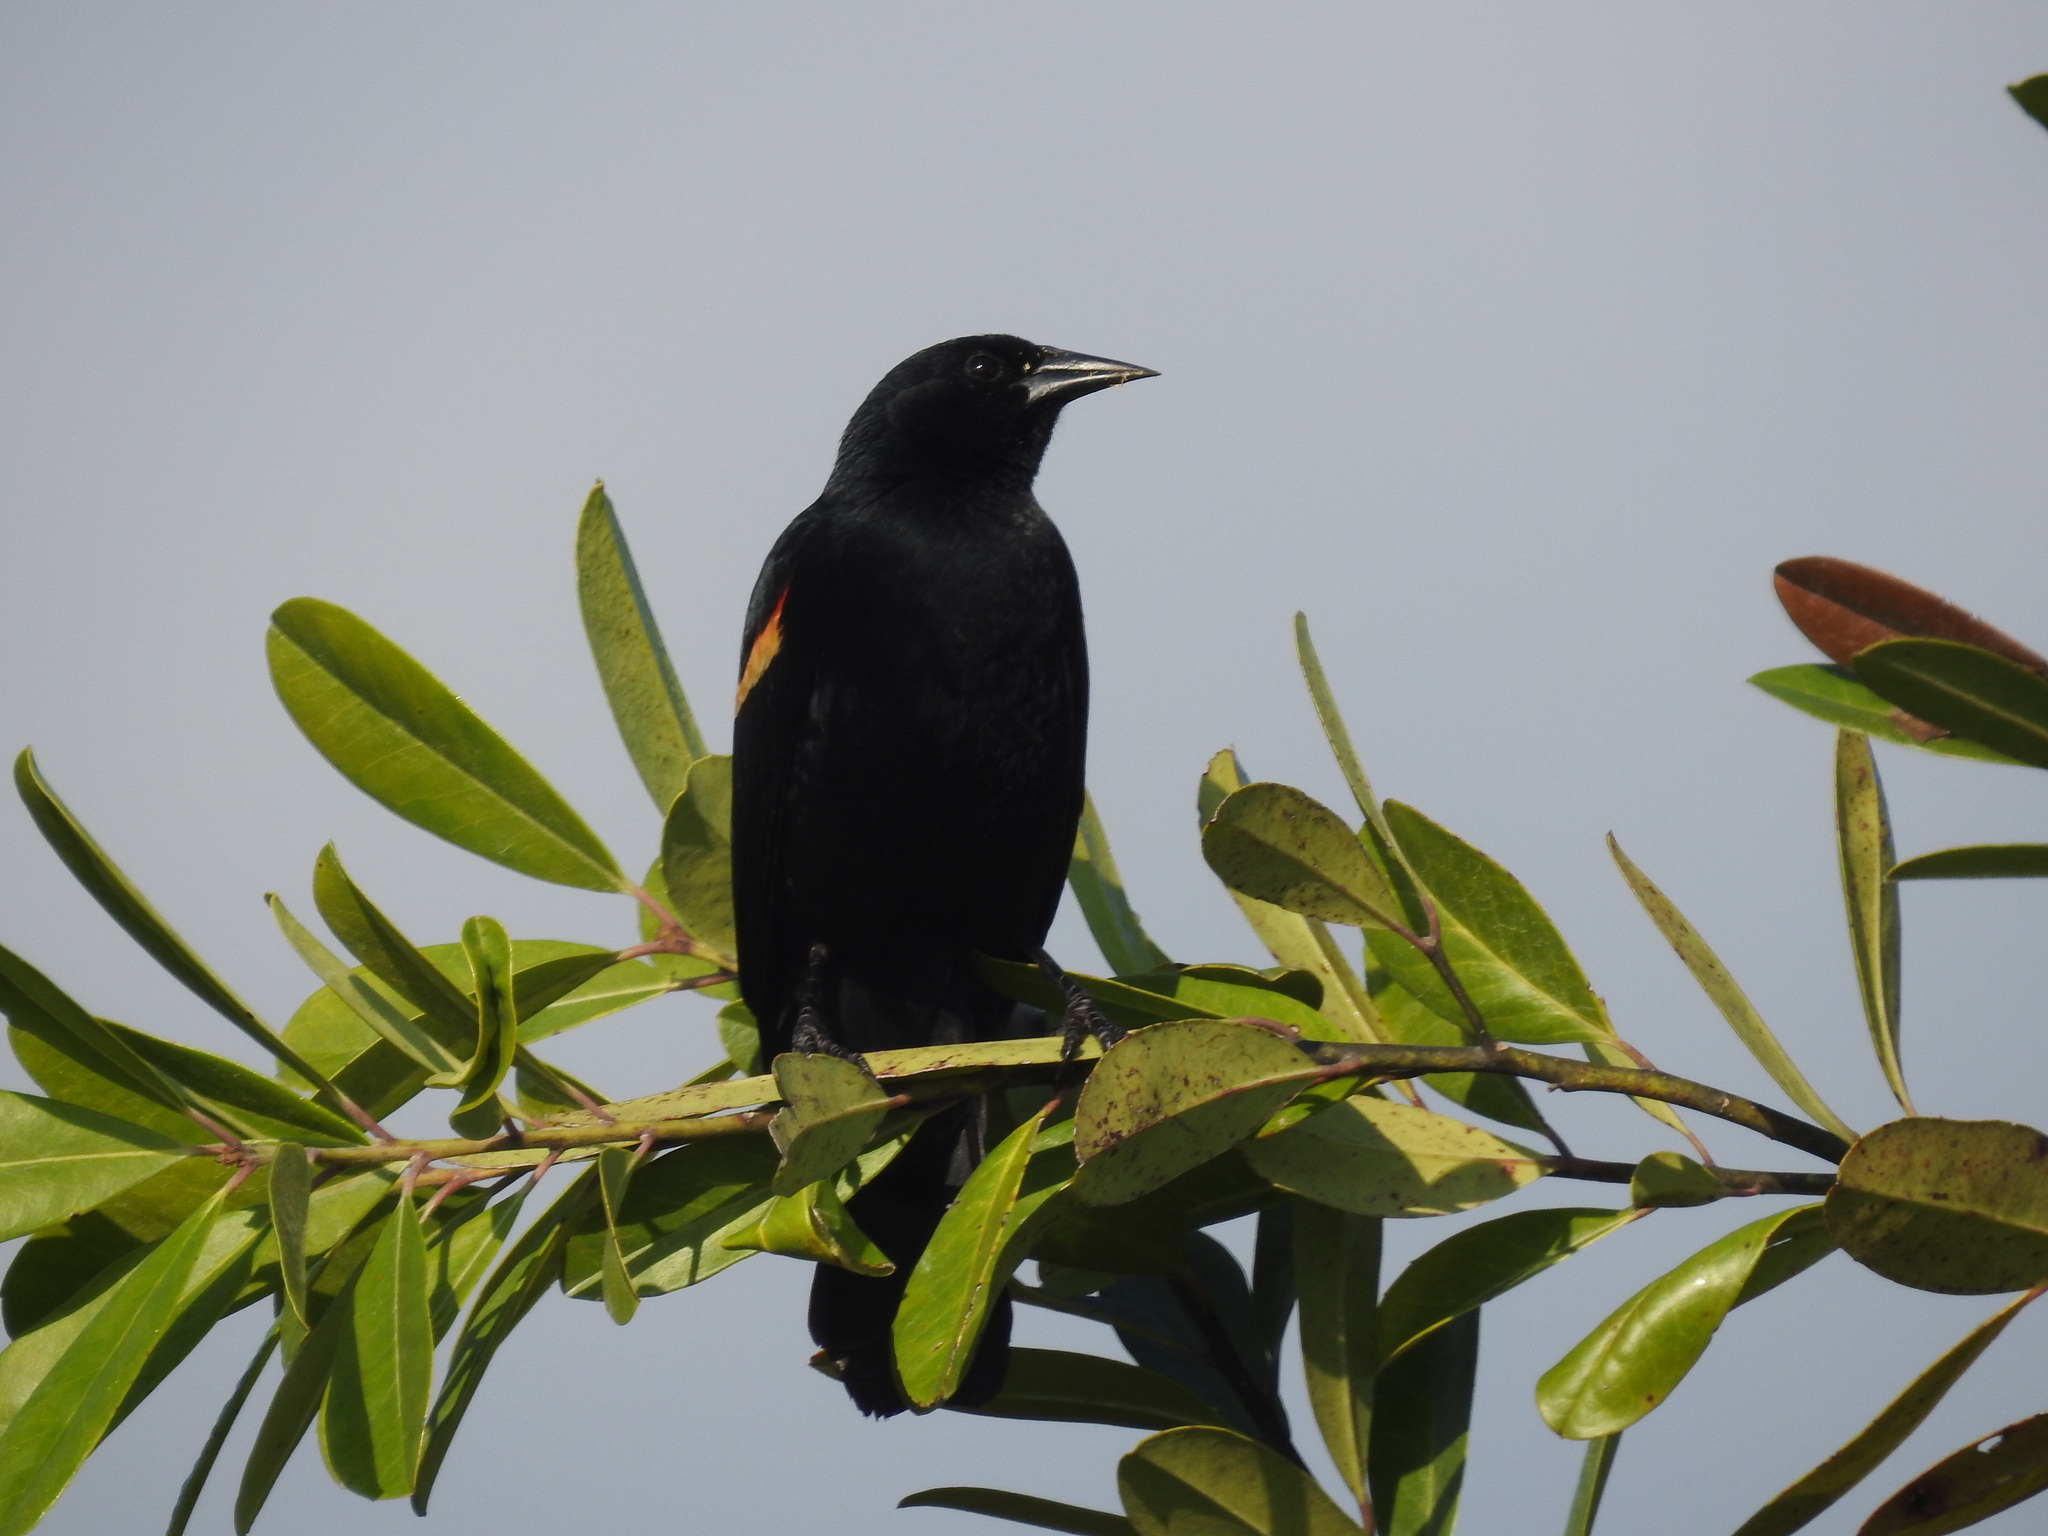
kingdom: Animalia
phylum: Chordata
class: Aves
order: Passeriformes
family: Icteridae
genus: Agelaius
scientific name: Agelaius phoeniceus
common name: Red-winged blackbird
